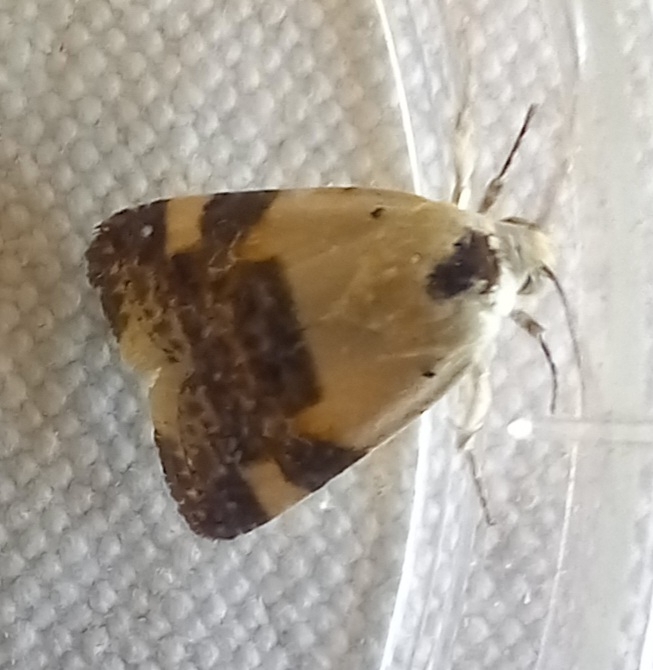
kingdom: Animalia
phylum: Arthropoda
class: Insecta
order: Lepidoptera
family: Noctuidae
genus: Acontia
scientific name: Acontia lucida
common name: Pale shoulder
